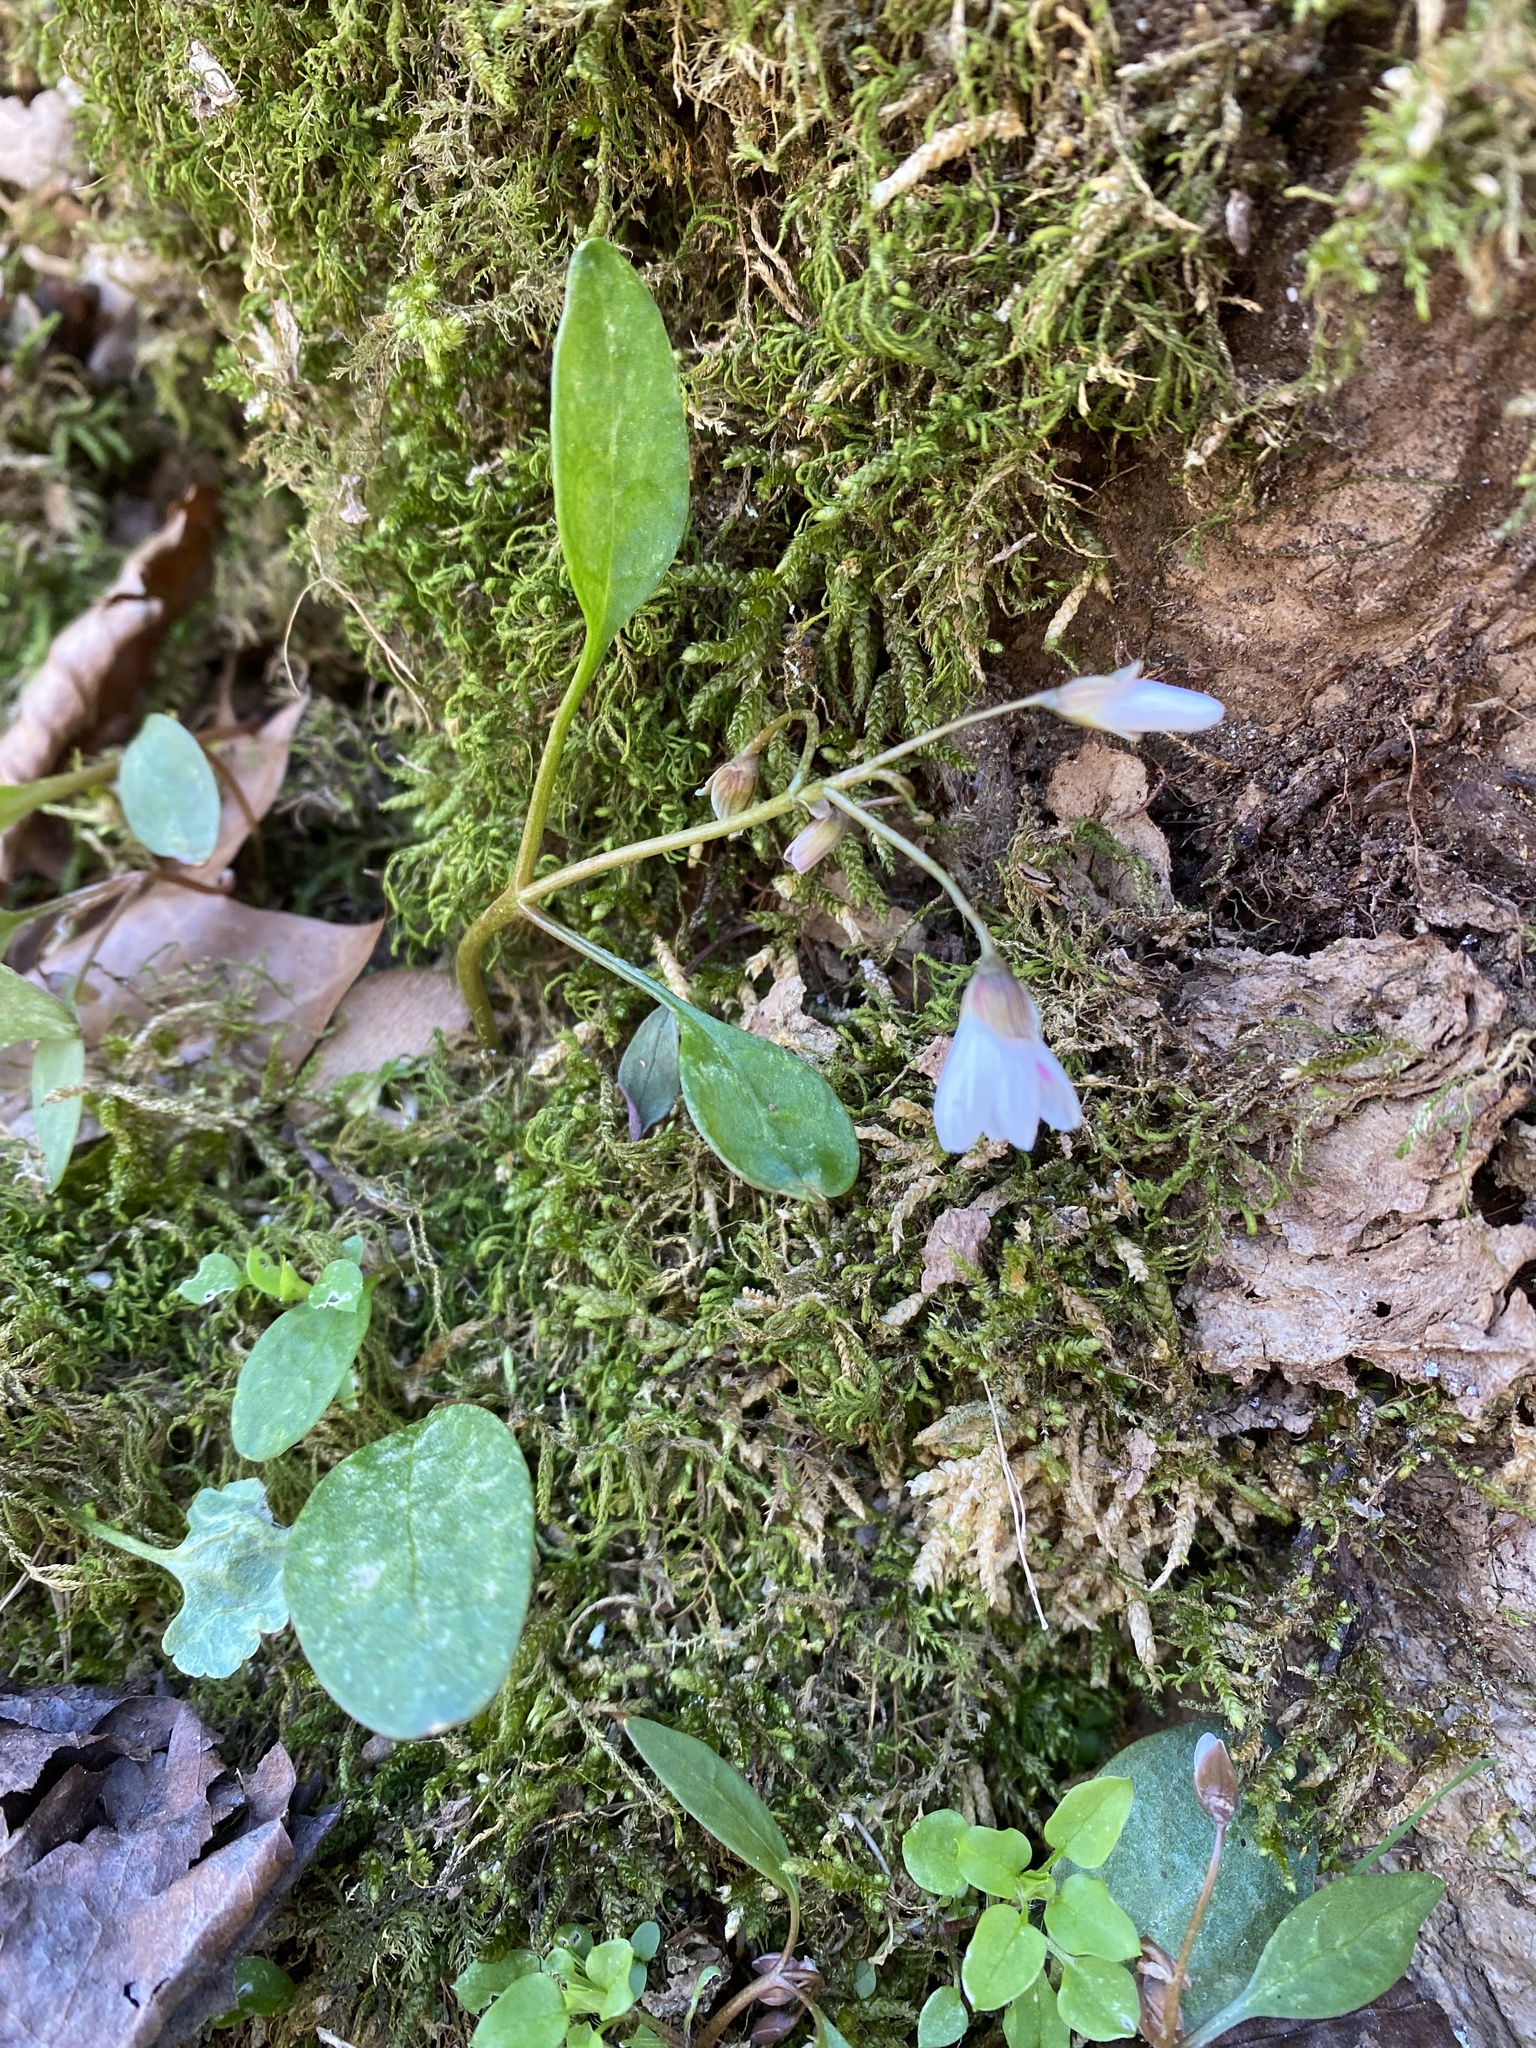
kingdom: Plantae
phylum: Tracheophyta
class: Magnoliopsida
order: Caryophyllales
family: Montiaceae
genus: Claytonia
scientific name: Claytonia caroliniana
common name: Carolina spring beauty
